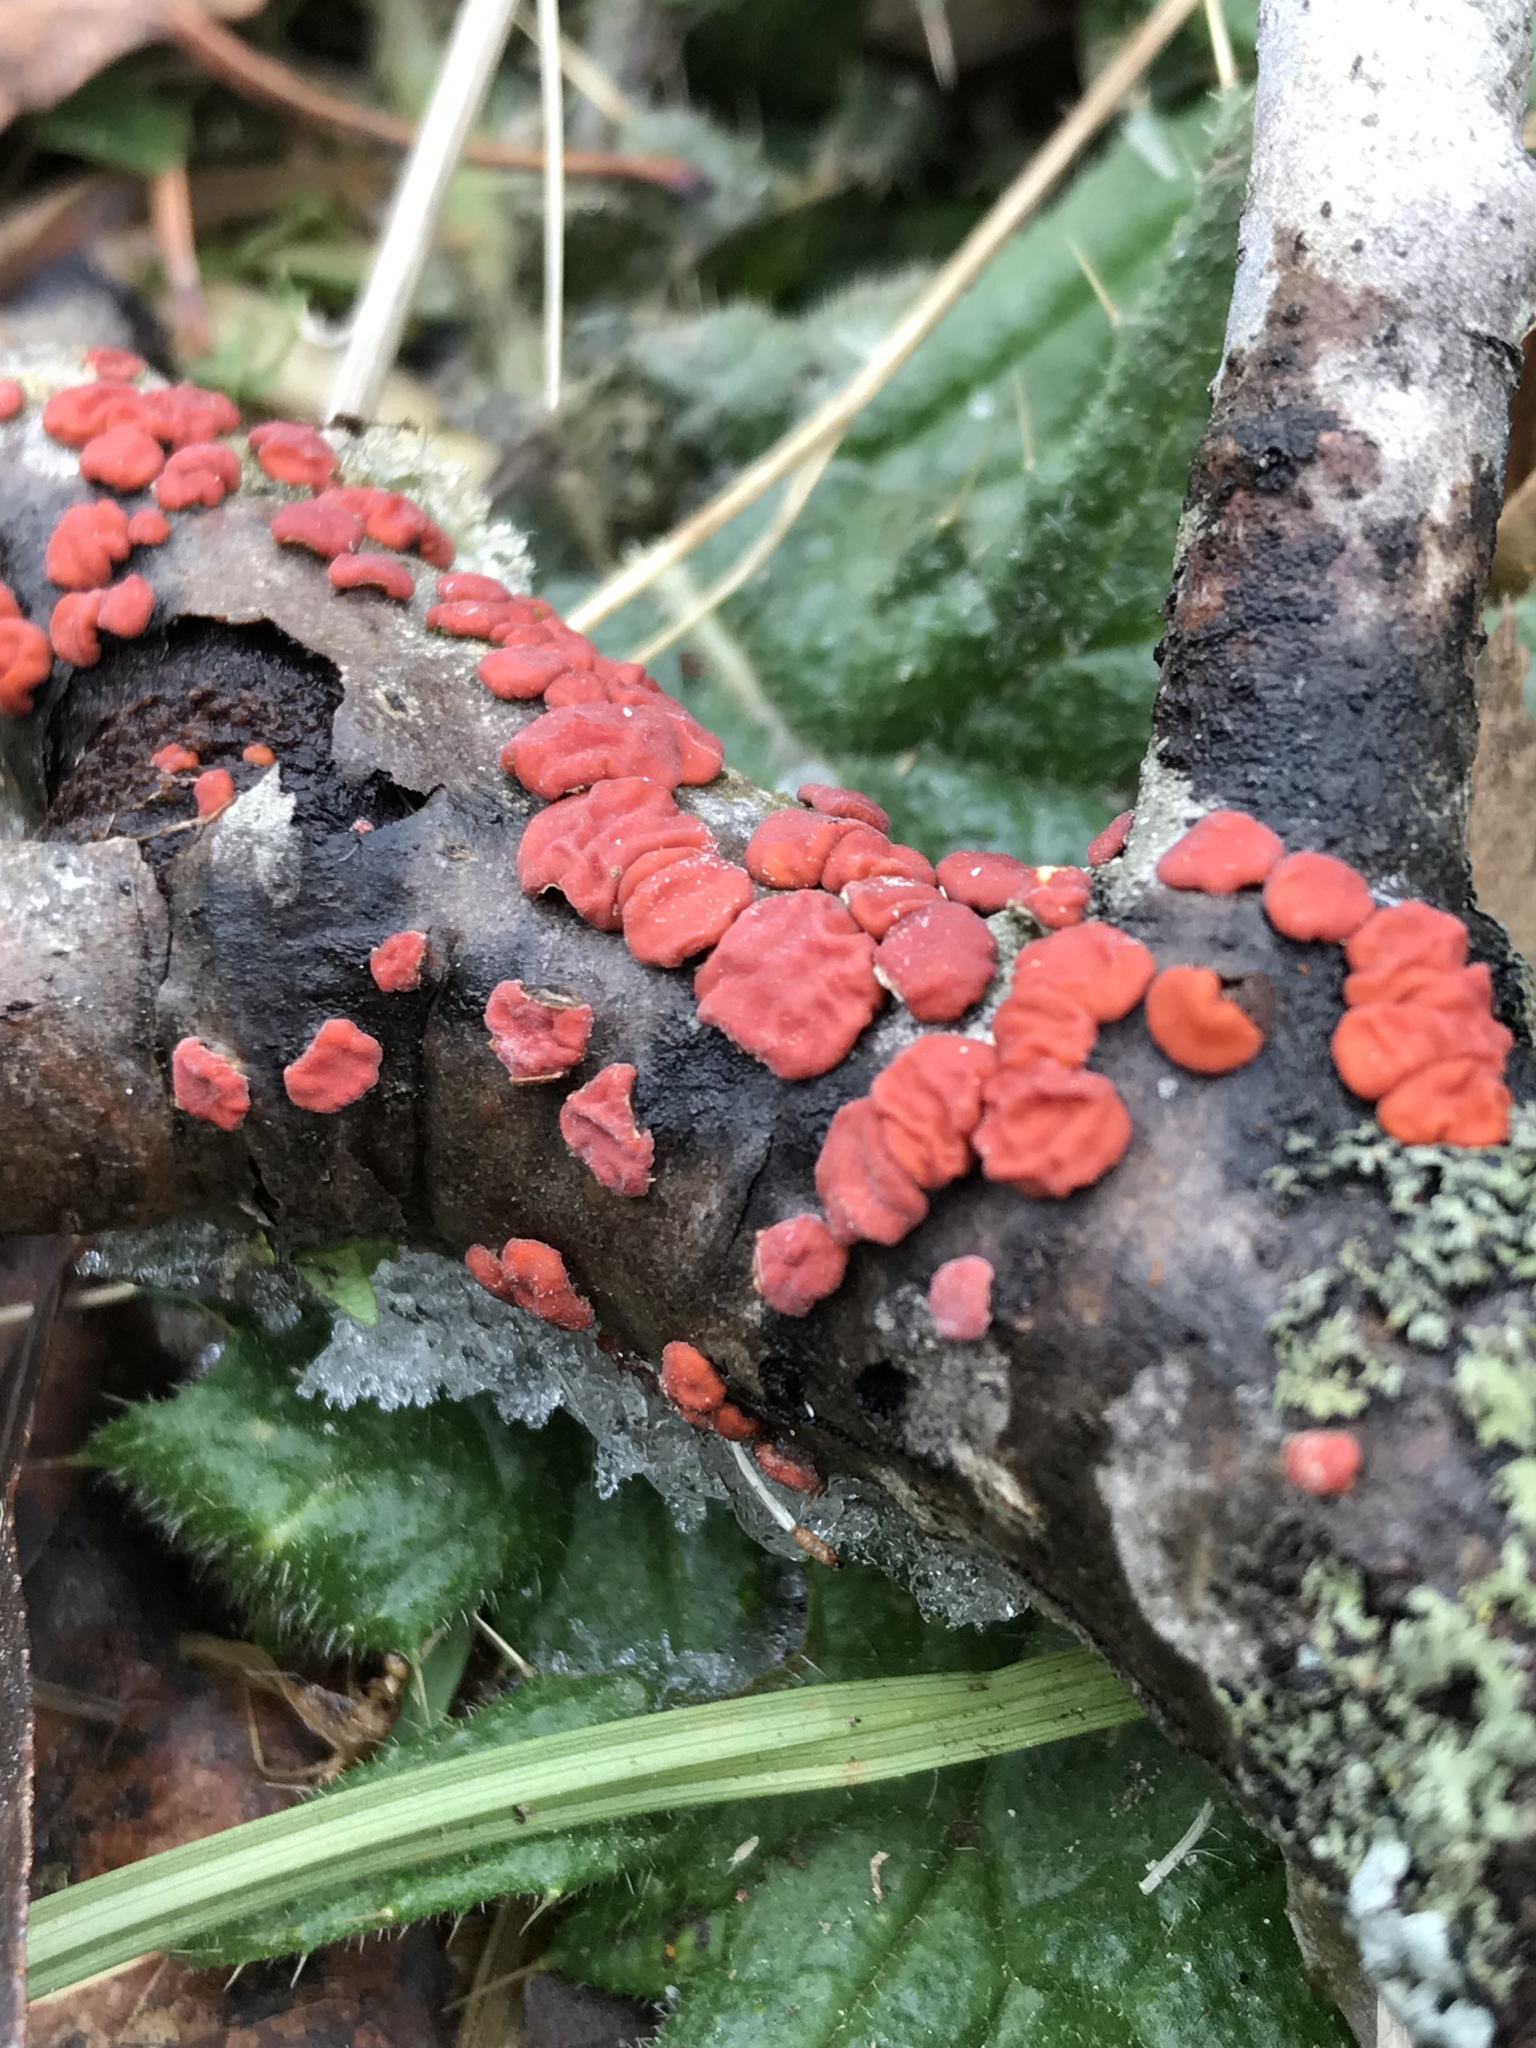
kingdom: Fungi
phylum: Basidiomycota
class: Agaricomycetes
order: Russulales
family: Peniophoraceae
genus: Peniophora
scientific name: Peniophora rufa
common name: Red tree brain fungus
